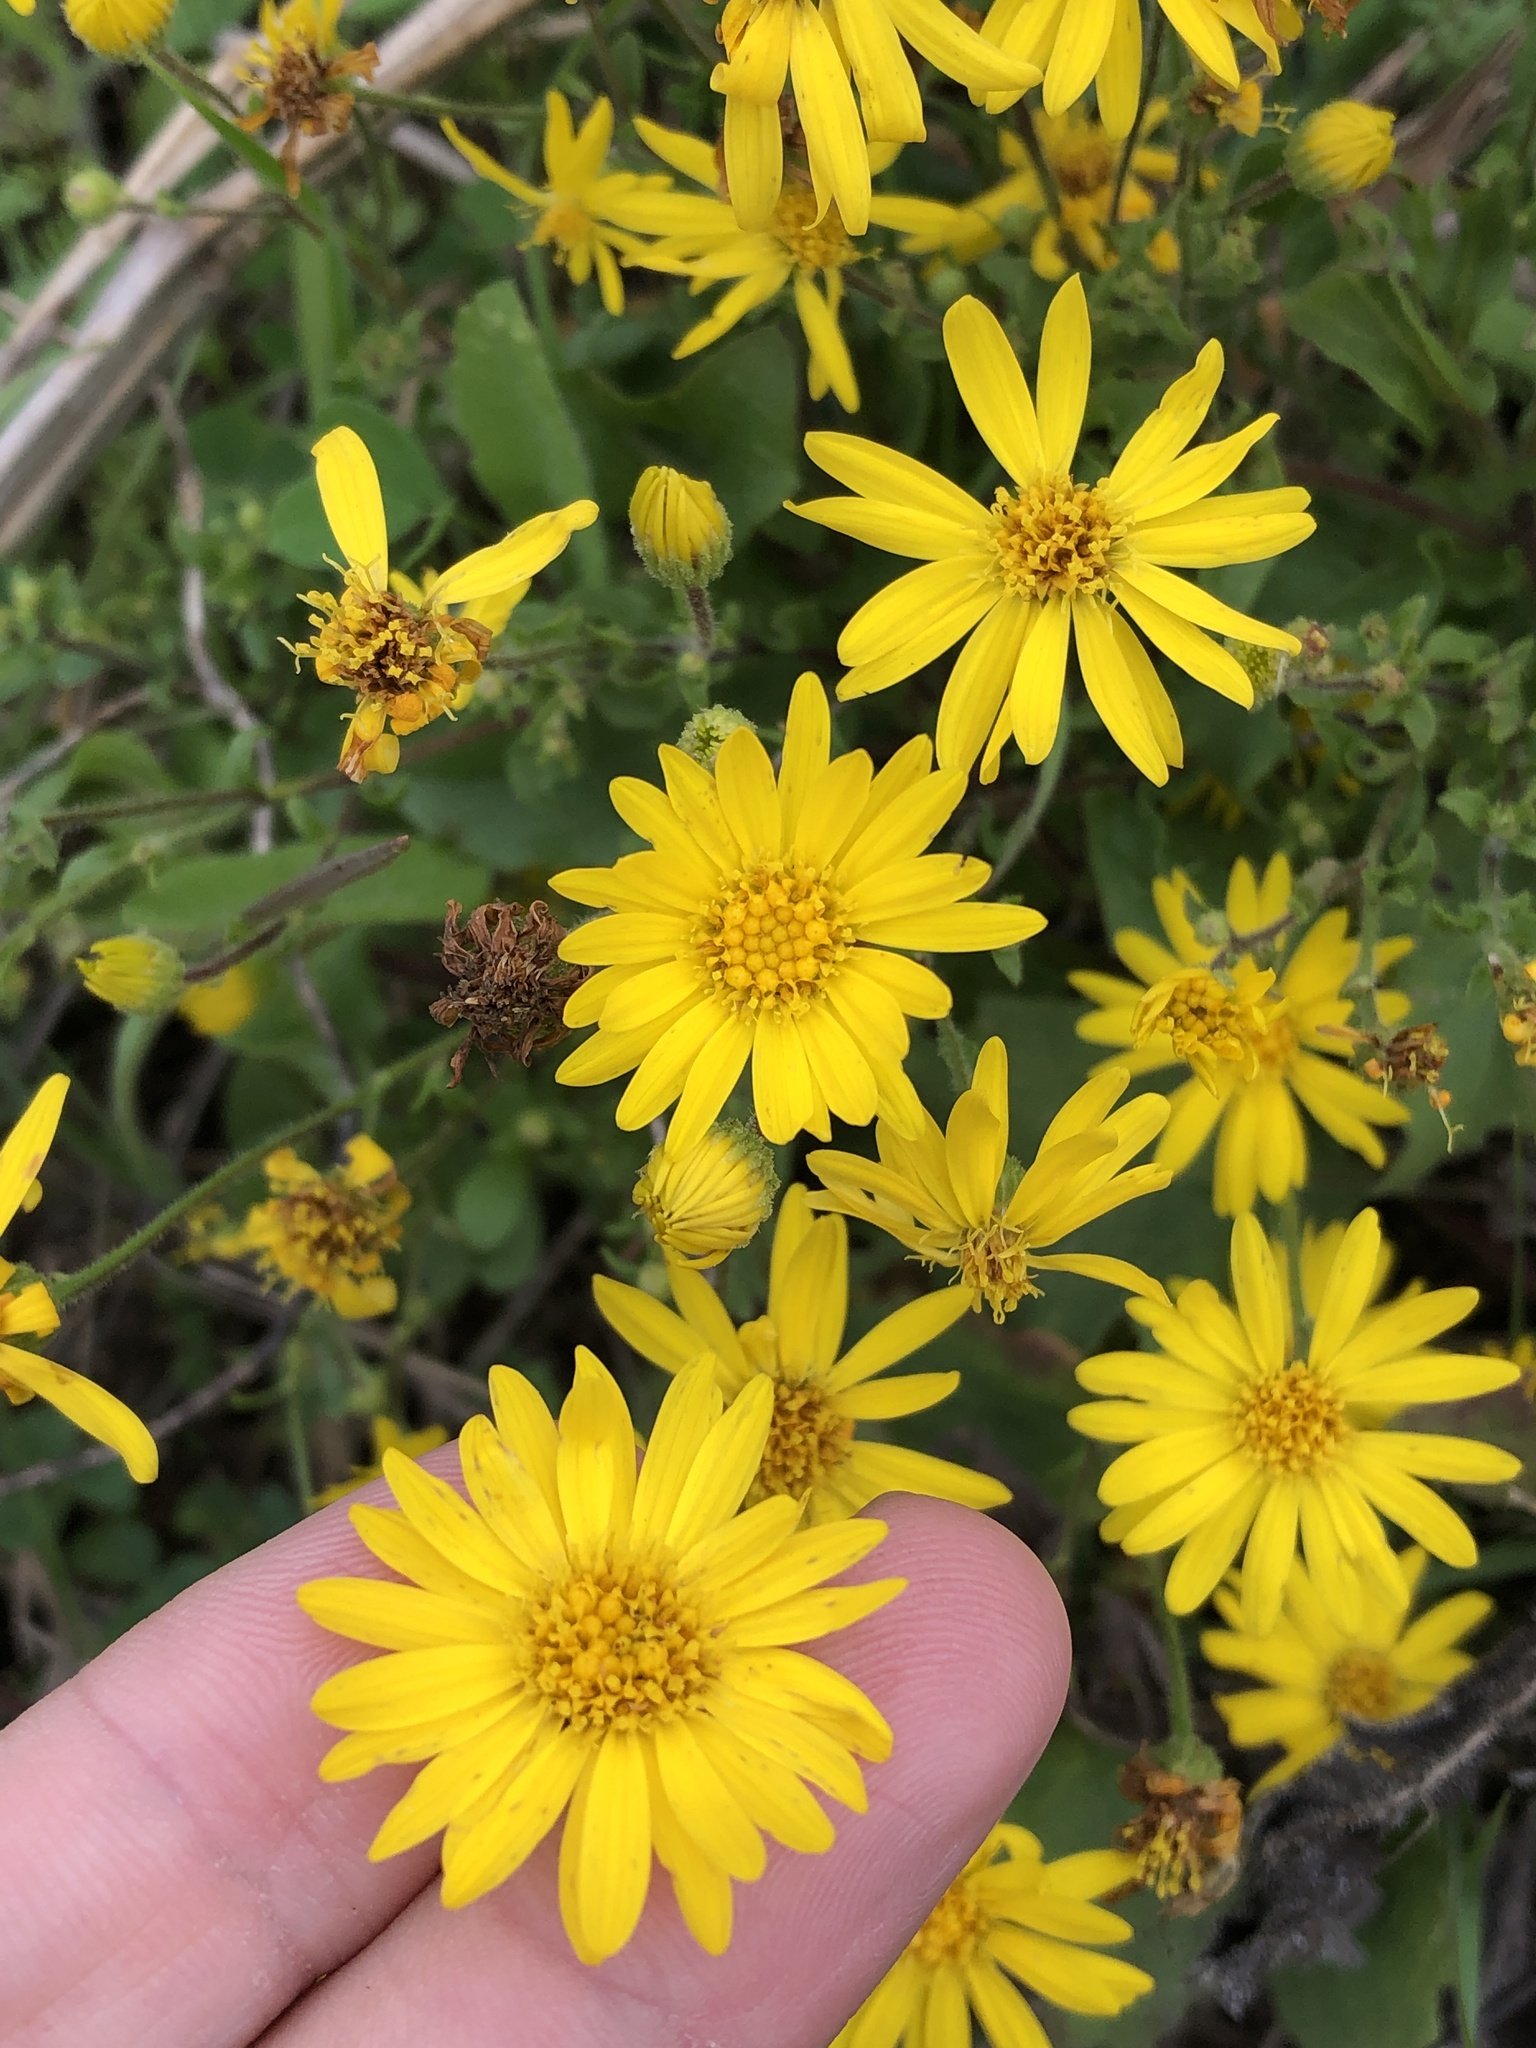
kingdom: Plantae
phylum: Tracheophyta
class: Magnoliopsida
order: Asterales
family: Asteraceae
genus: Heterotheca
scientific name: Heterotheca subaxillaris
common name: Camphorweed
